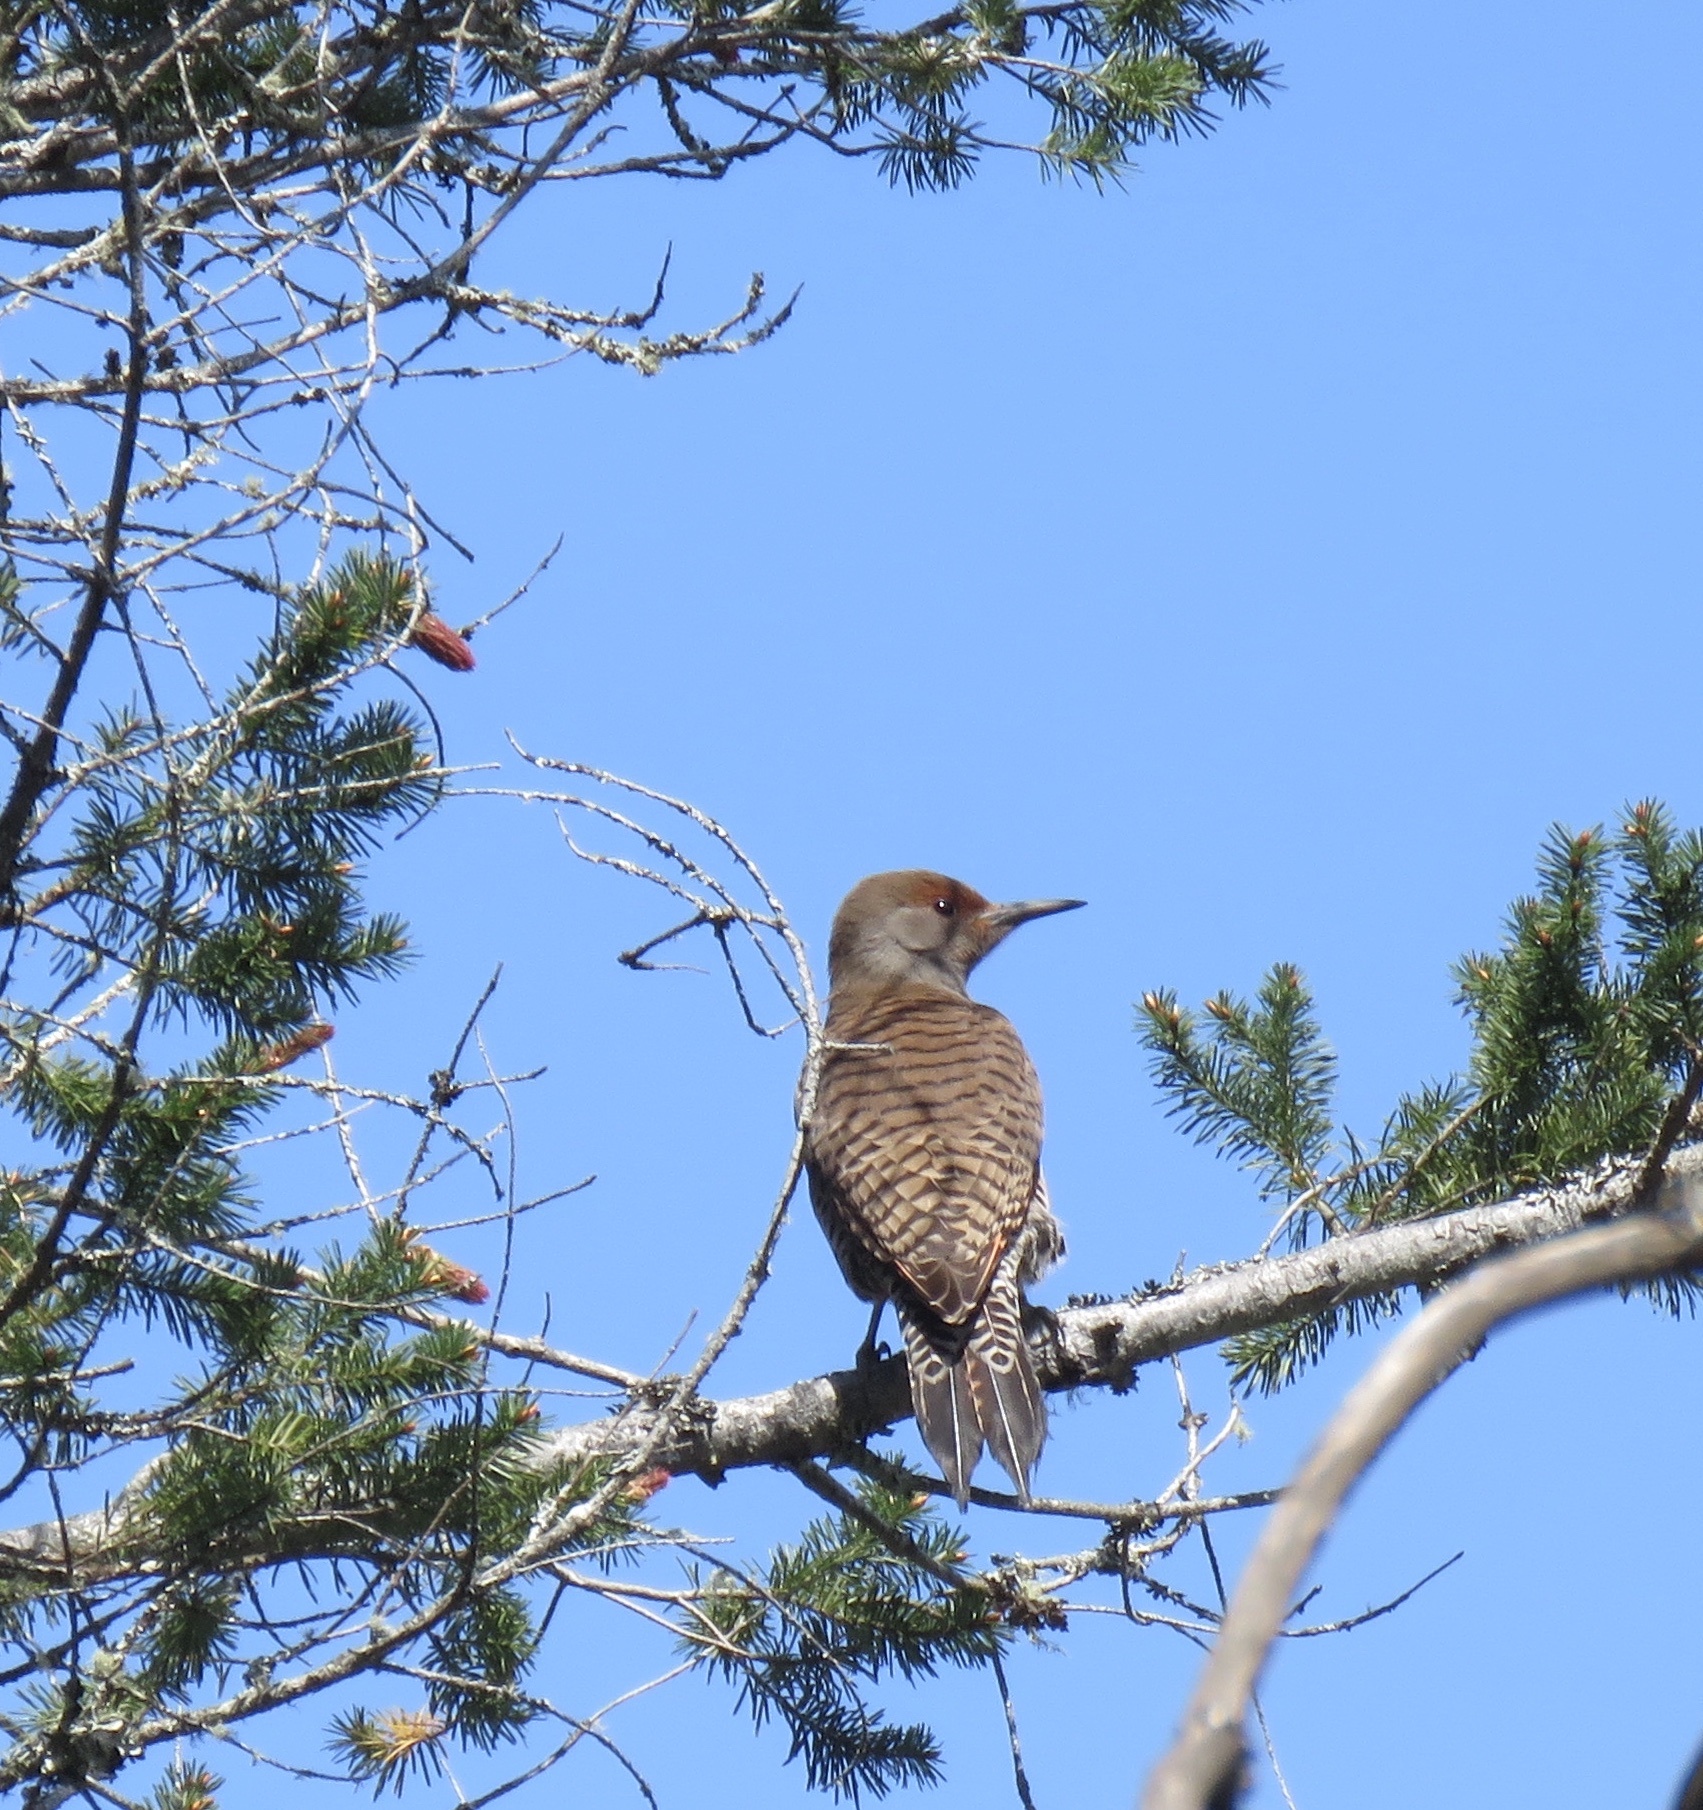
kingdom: Animalia
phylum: Chordata
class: Aves
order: Piciformes
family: Picidae
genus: Colaptes
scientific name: Colaptes auratus
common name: Northern flicker
